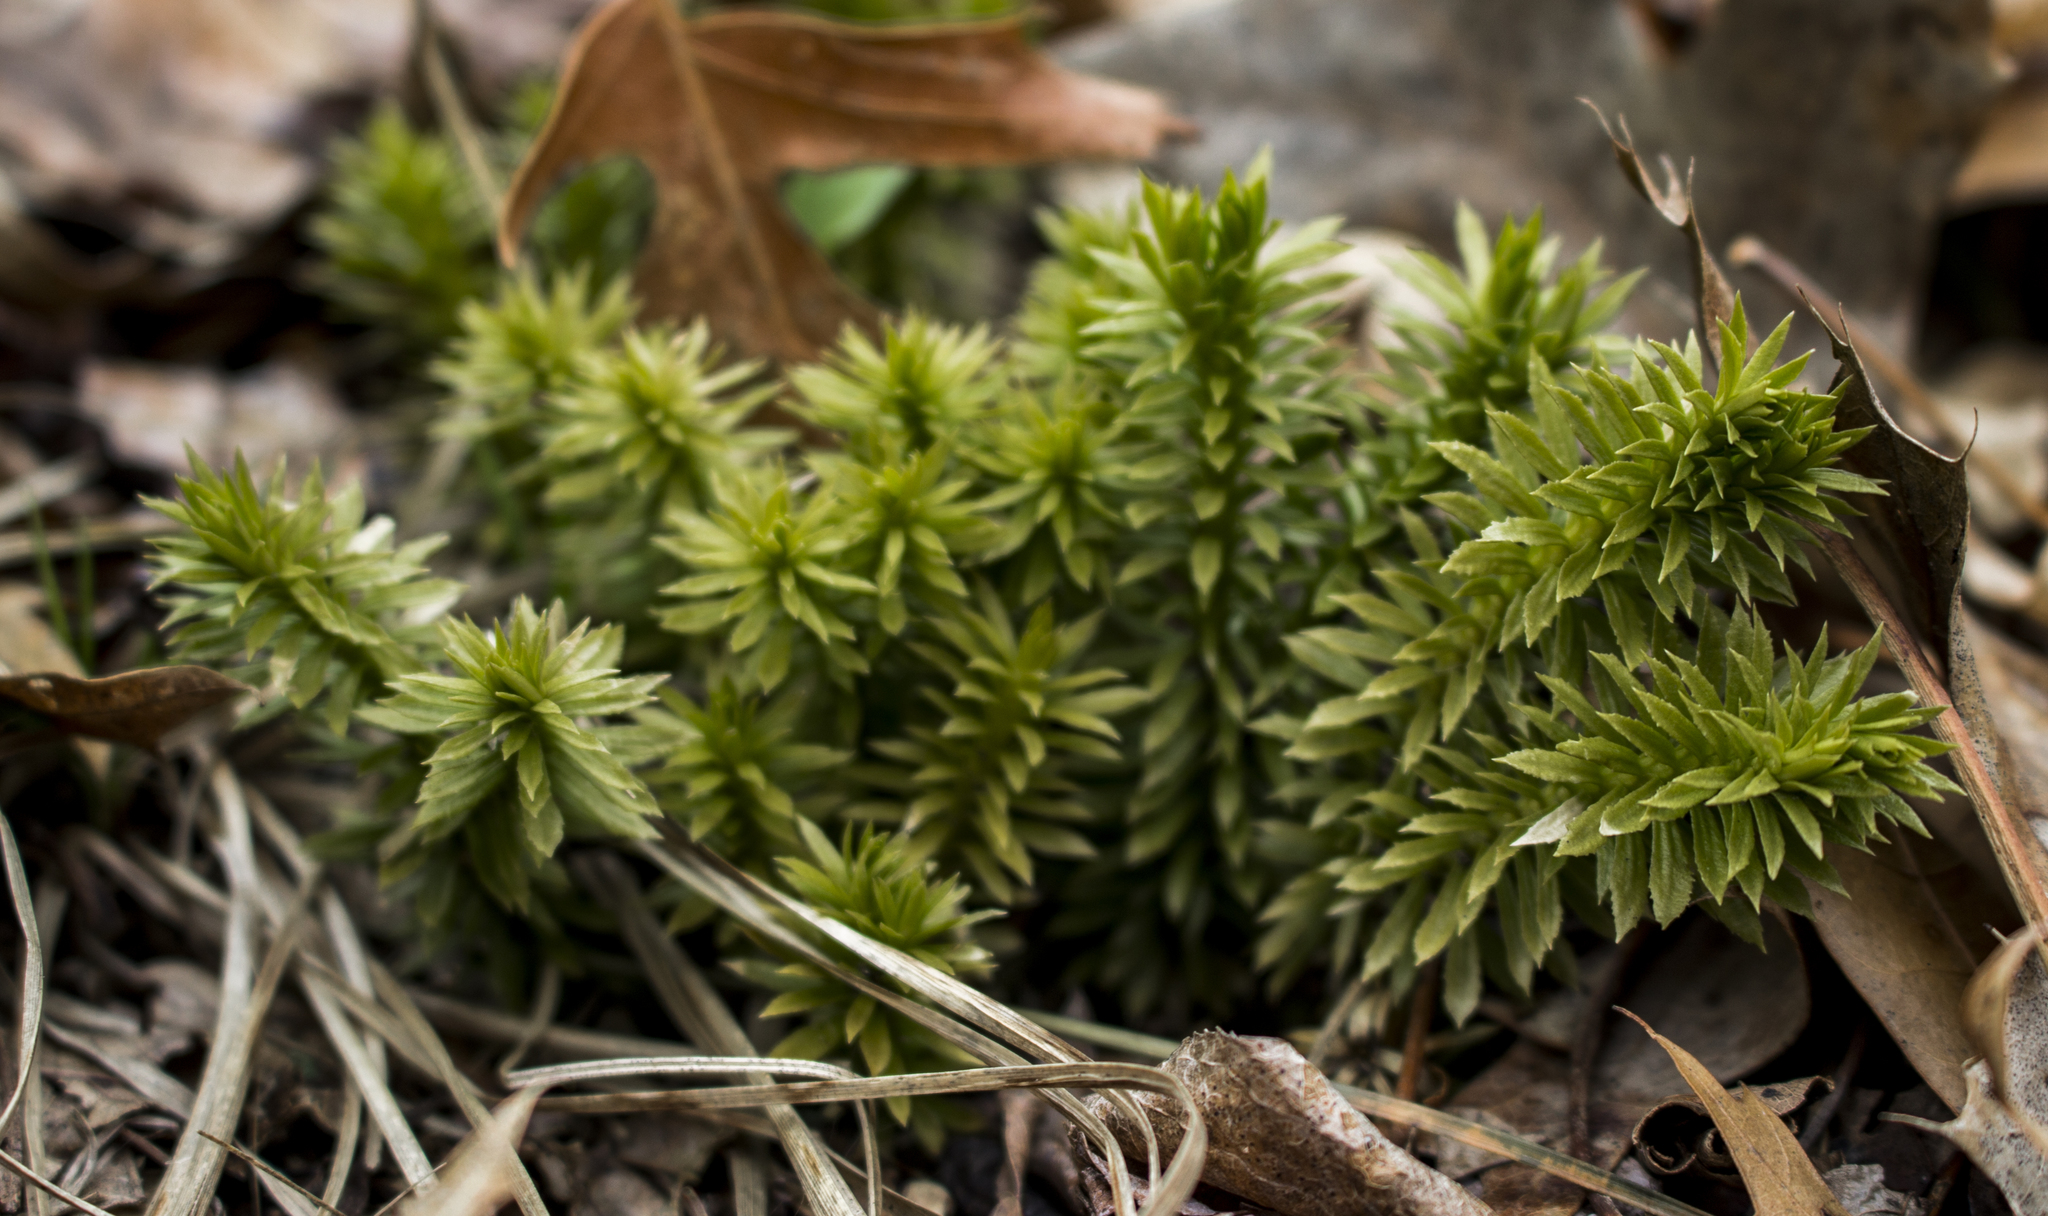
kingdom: Plantae
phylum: Tracheophyta
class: Lycopodiopsida
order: Lycopodiales
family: Lycopodiaceae
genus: Huperzia
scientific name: Huperzia lucidula
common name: Shining clubmoss
